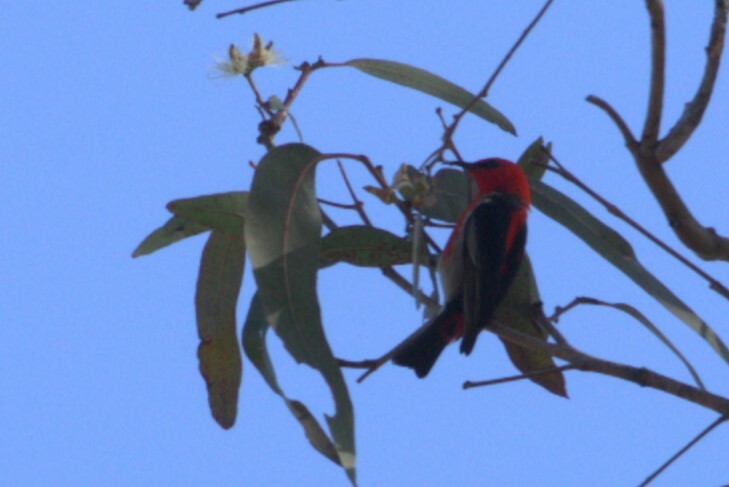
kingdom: Animalia
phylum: Chordata
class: Aves
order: Passeriformes
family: Meliphagidae
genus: Myzomela
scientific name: Myzomela sanguinolenta
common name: Scarlet myzomela
